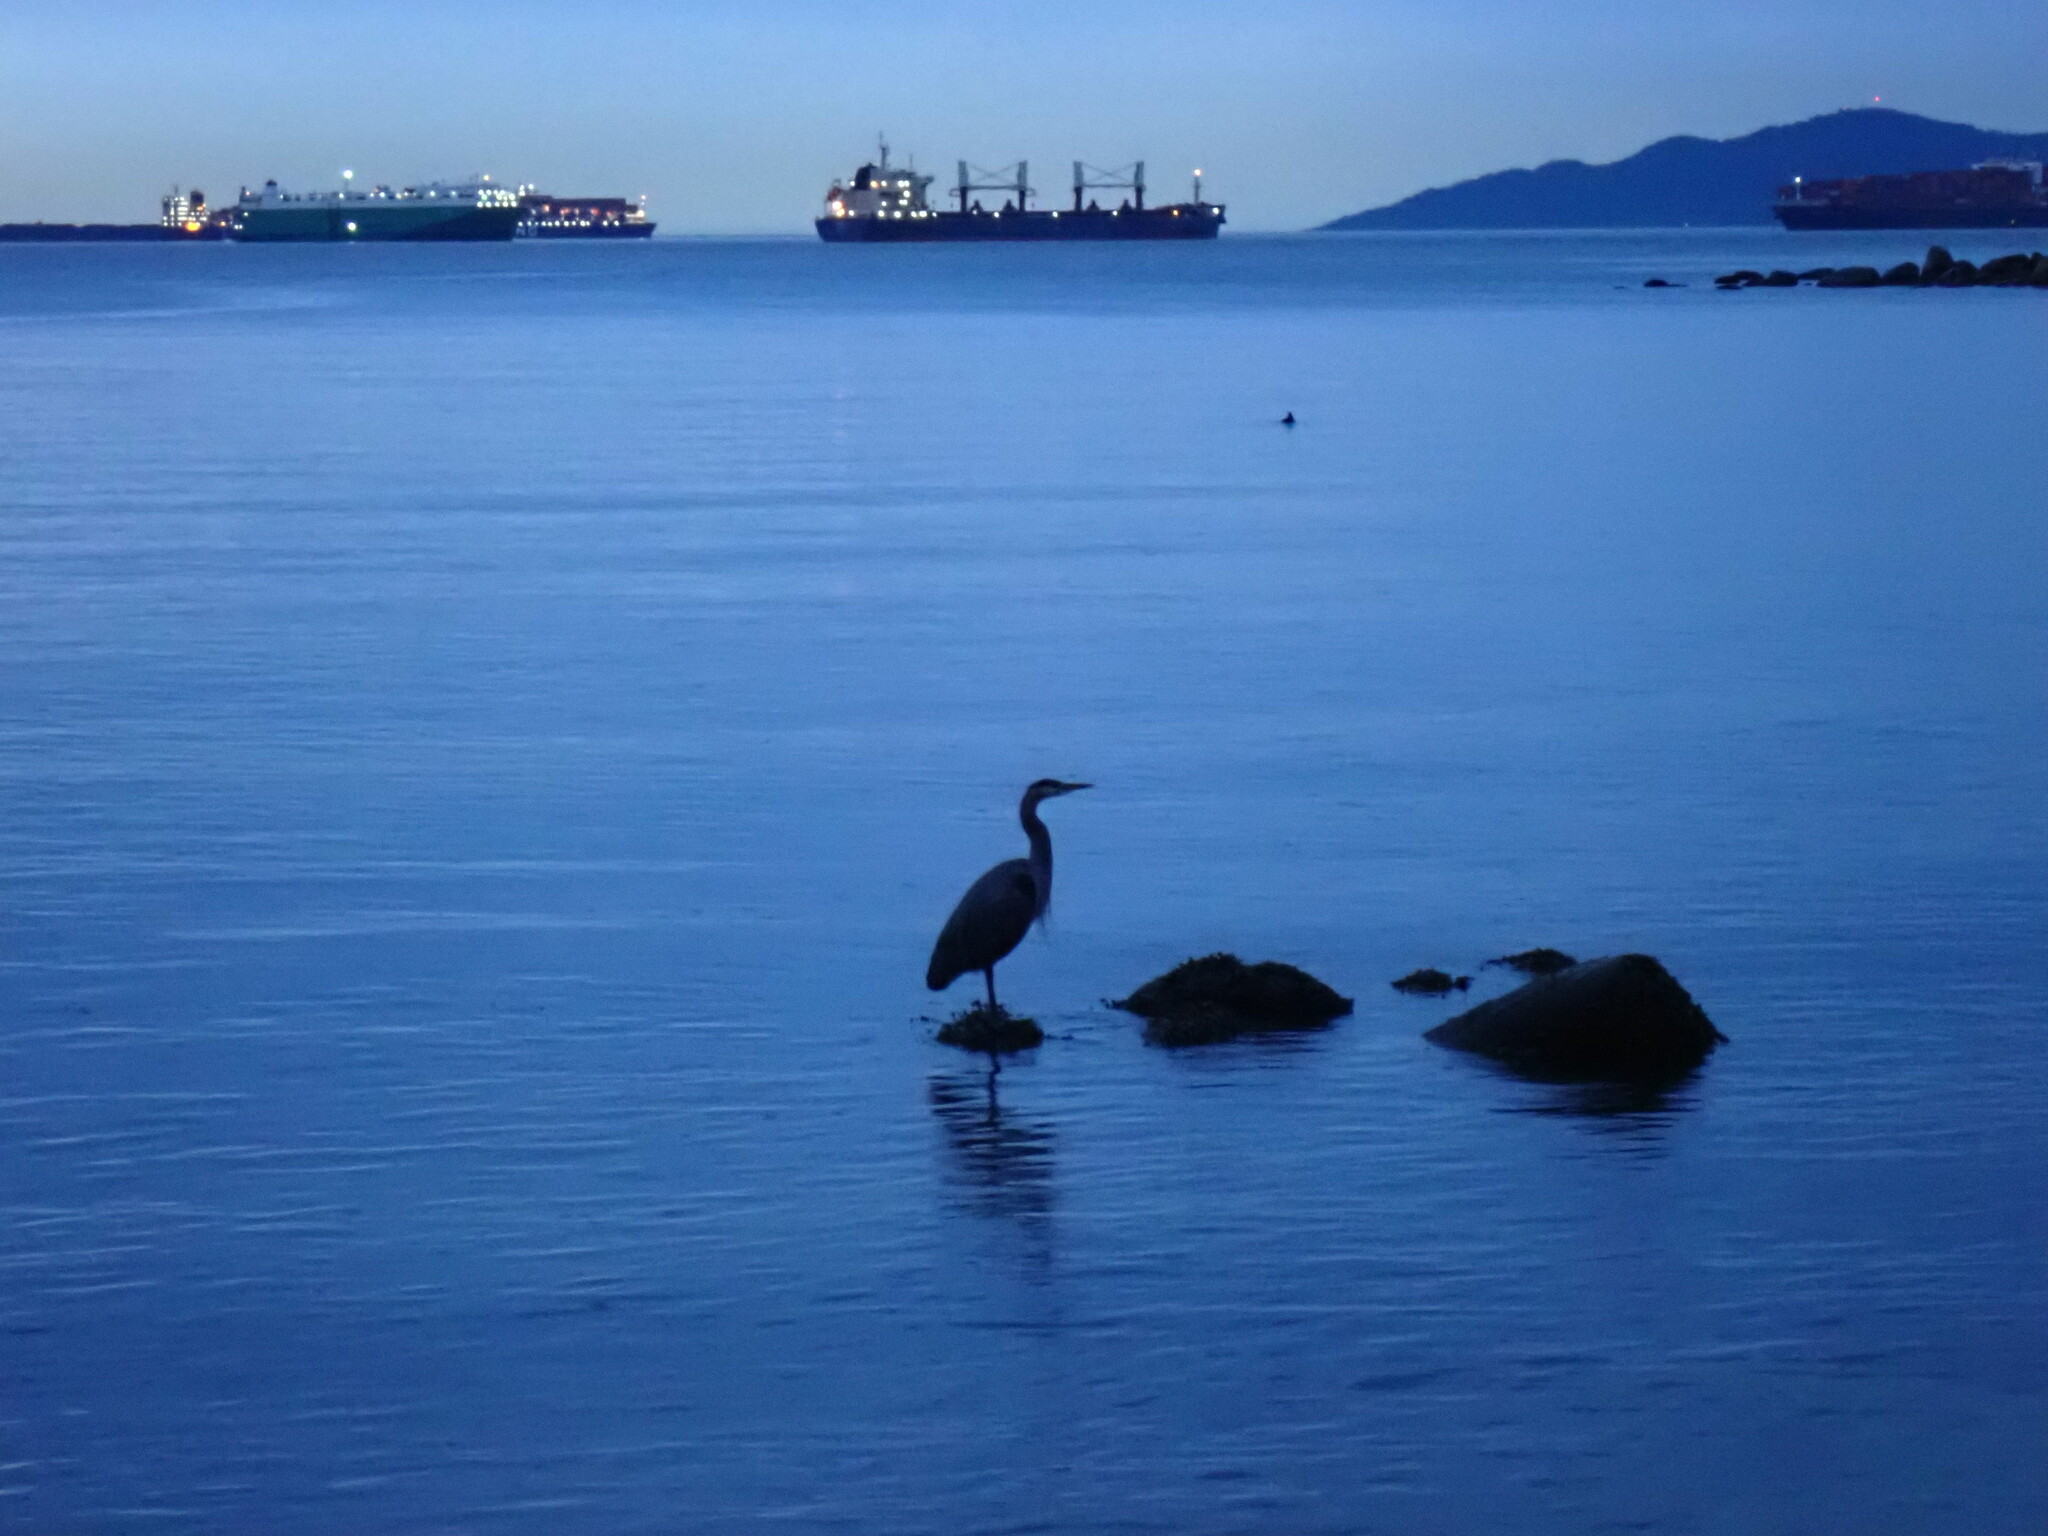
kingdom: Animalia
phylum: Chordata
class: Aves
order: Pelecaniformes
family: Ardeidae
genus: Ardea
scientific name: Ardea herodias
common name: Great blue heron
